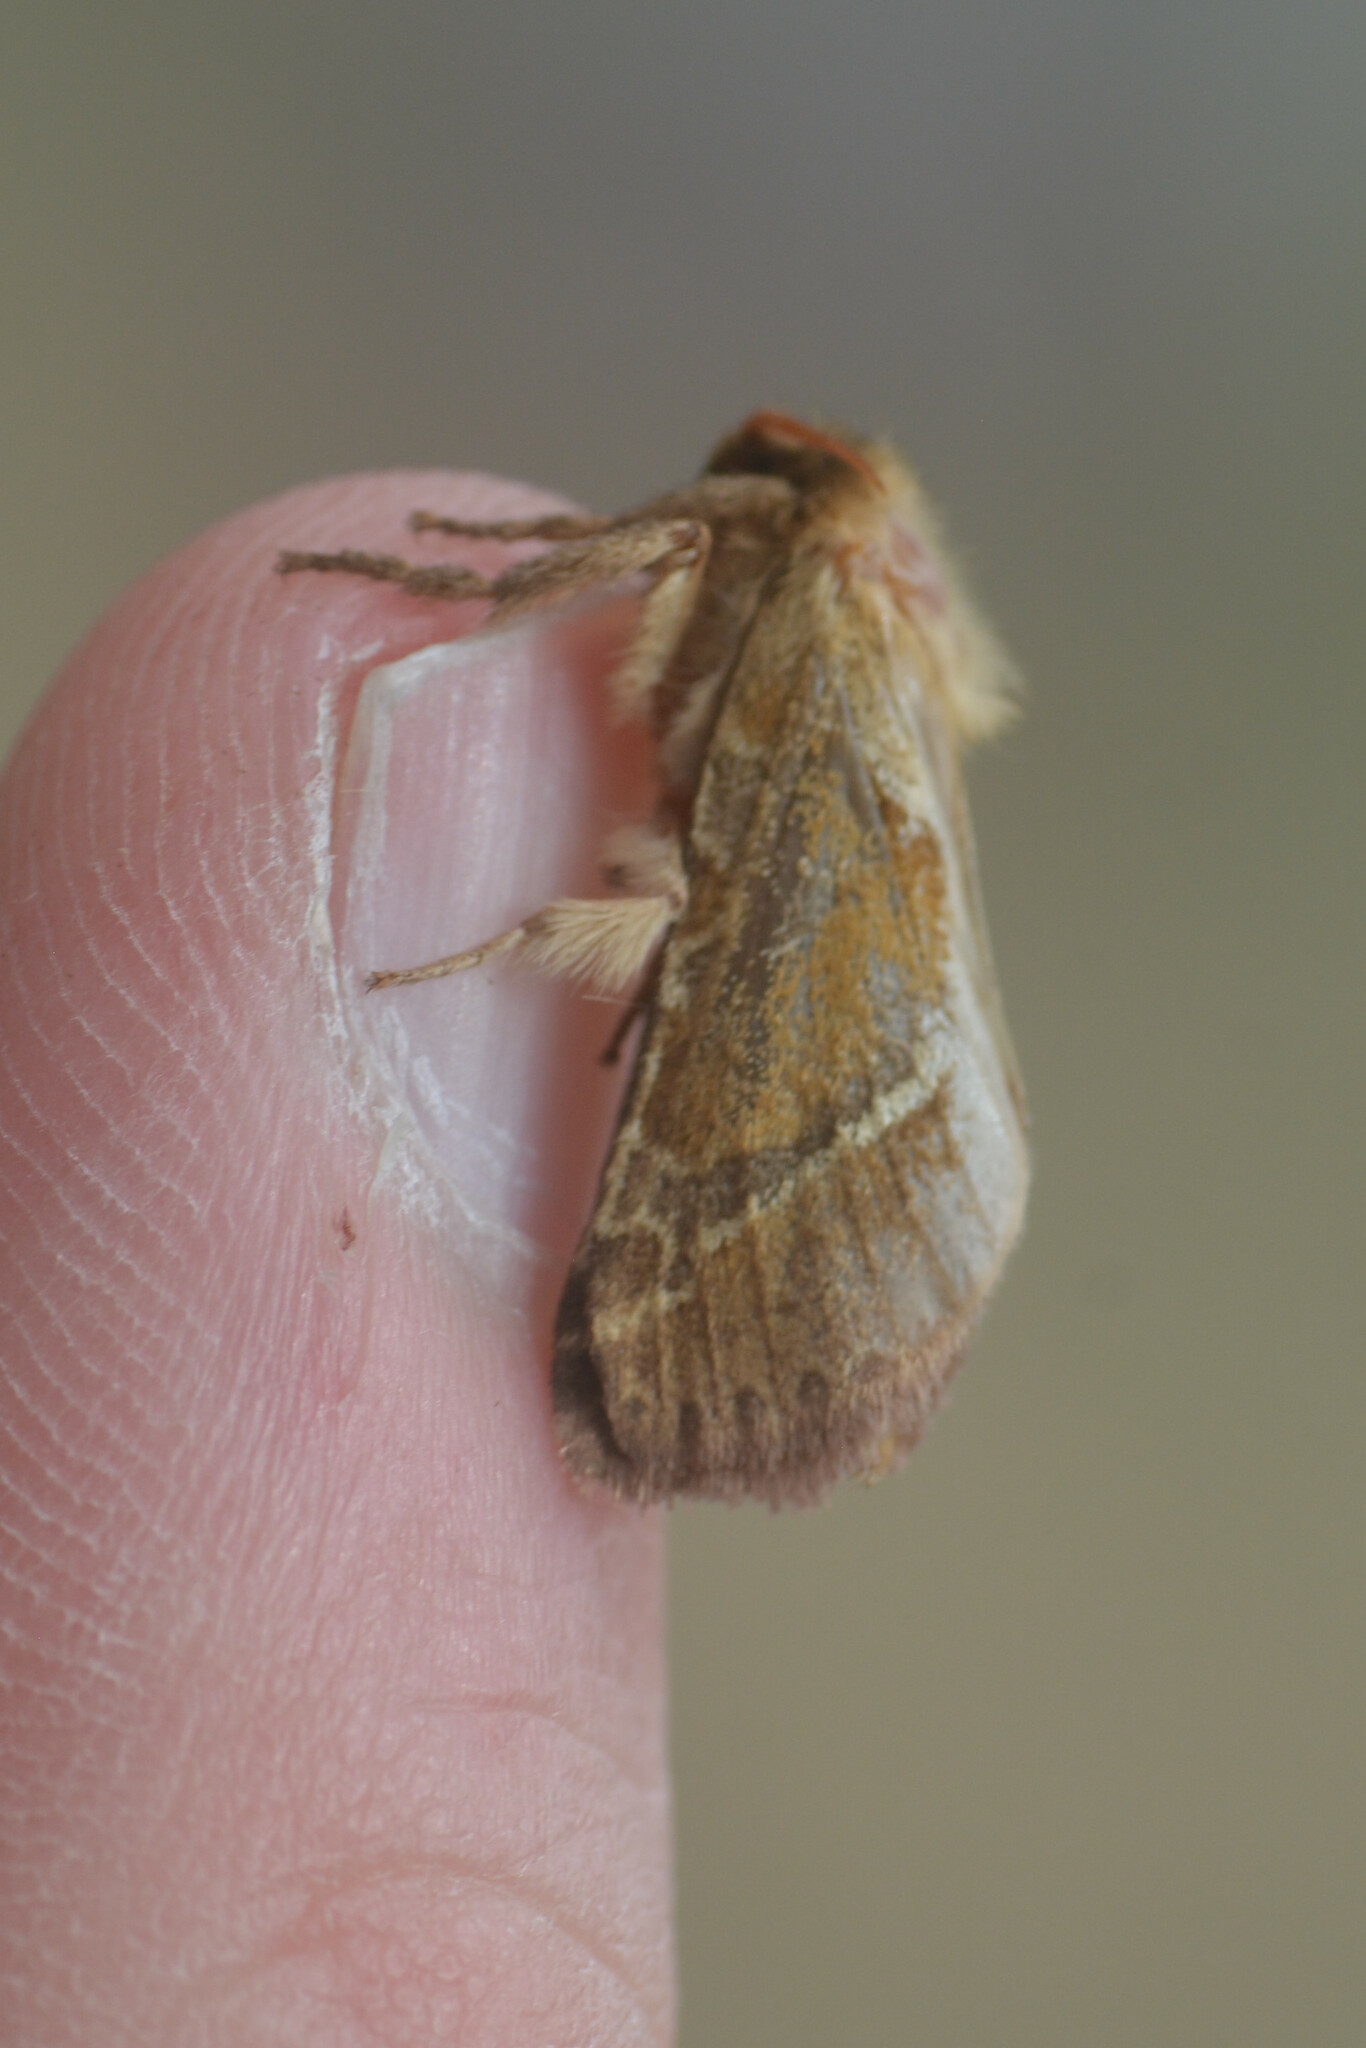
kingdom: Animalia
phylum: Arthropoda
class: Insecta
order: Lepidoptera
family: Hepialidae
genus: Triodia
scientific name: Triodia sylvina
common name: Orange swift
